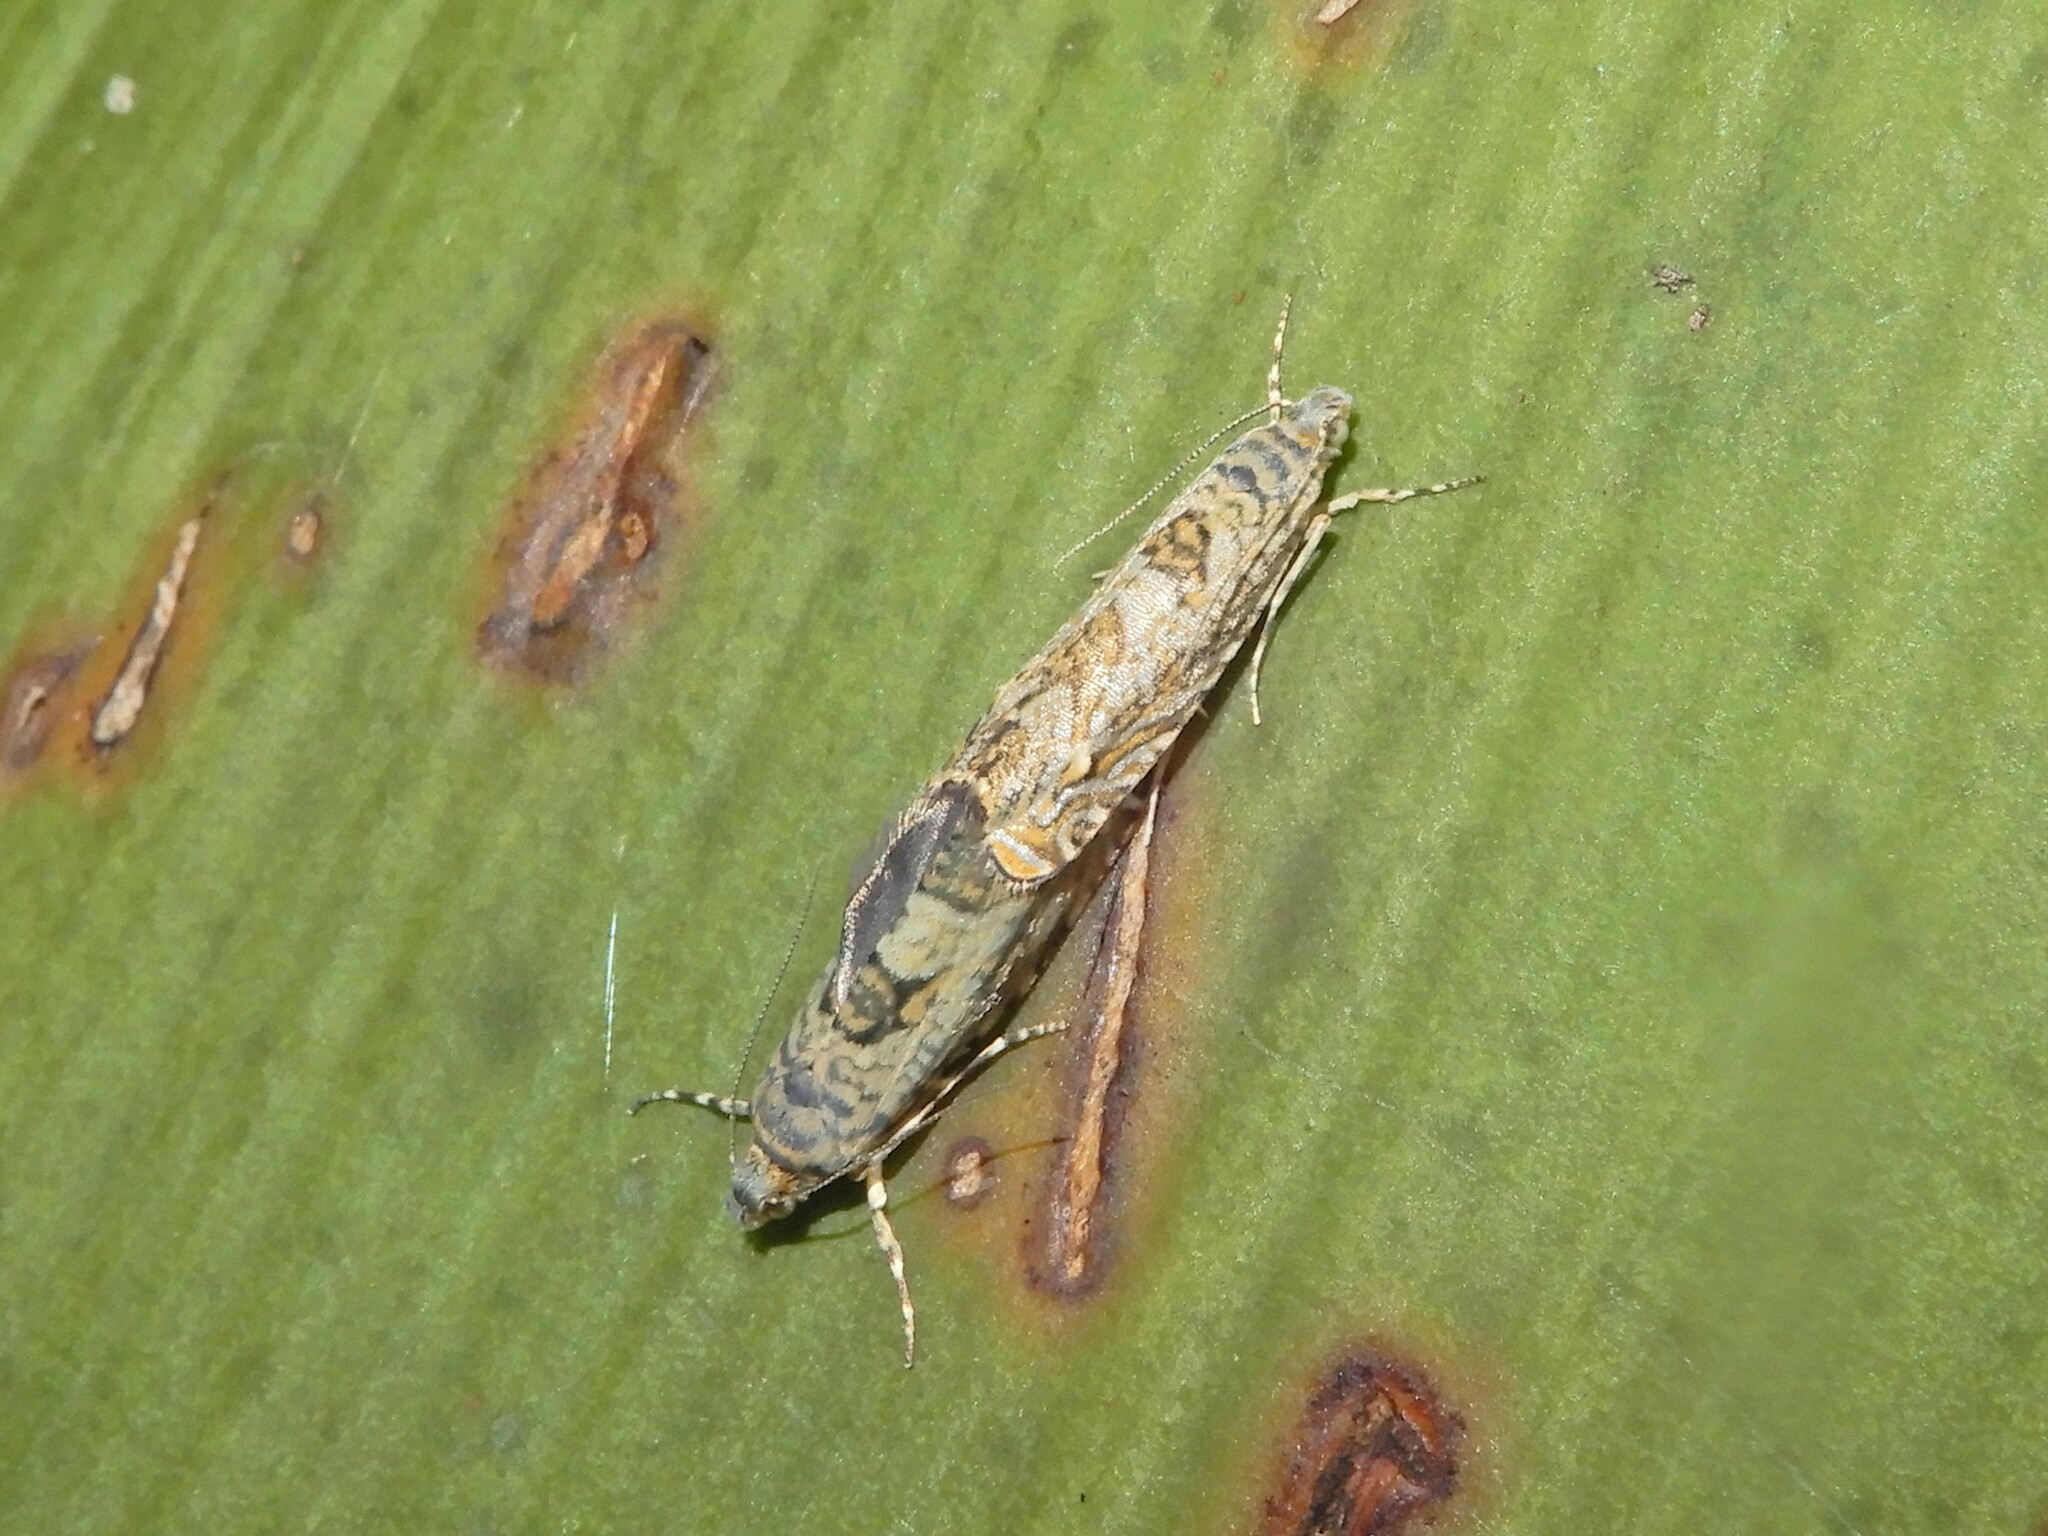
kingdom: Animalia
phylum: Arthropoda
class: Insecta
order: Lepidoptera
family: Plutellidae
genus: Doxophyrtis
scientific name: Doxophyrtis hydrocosma
